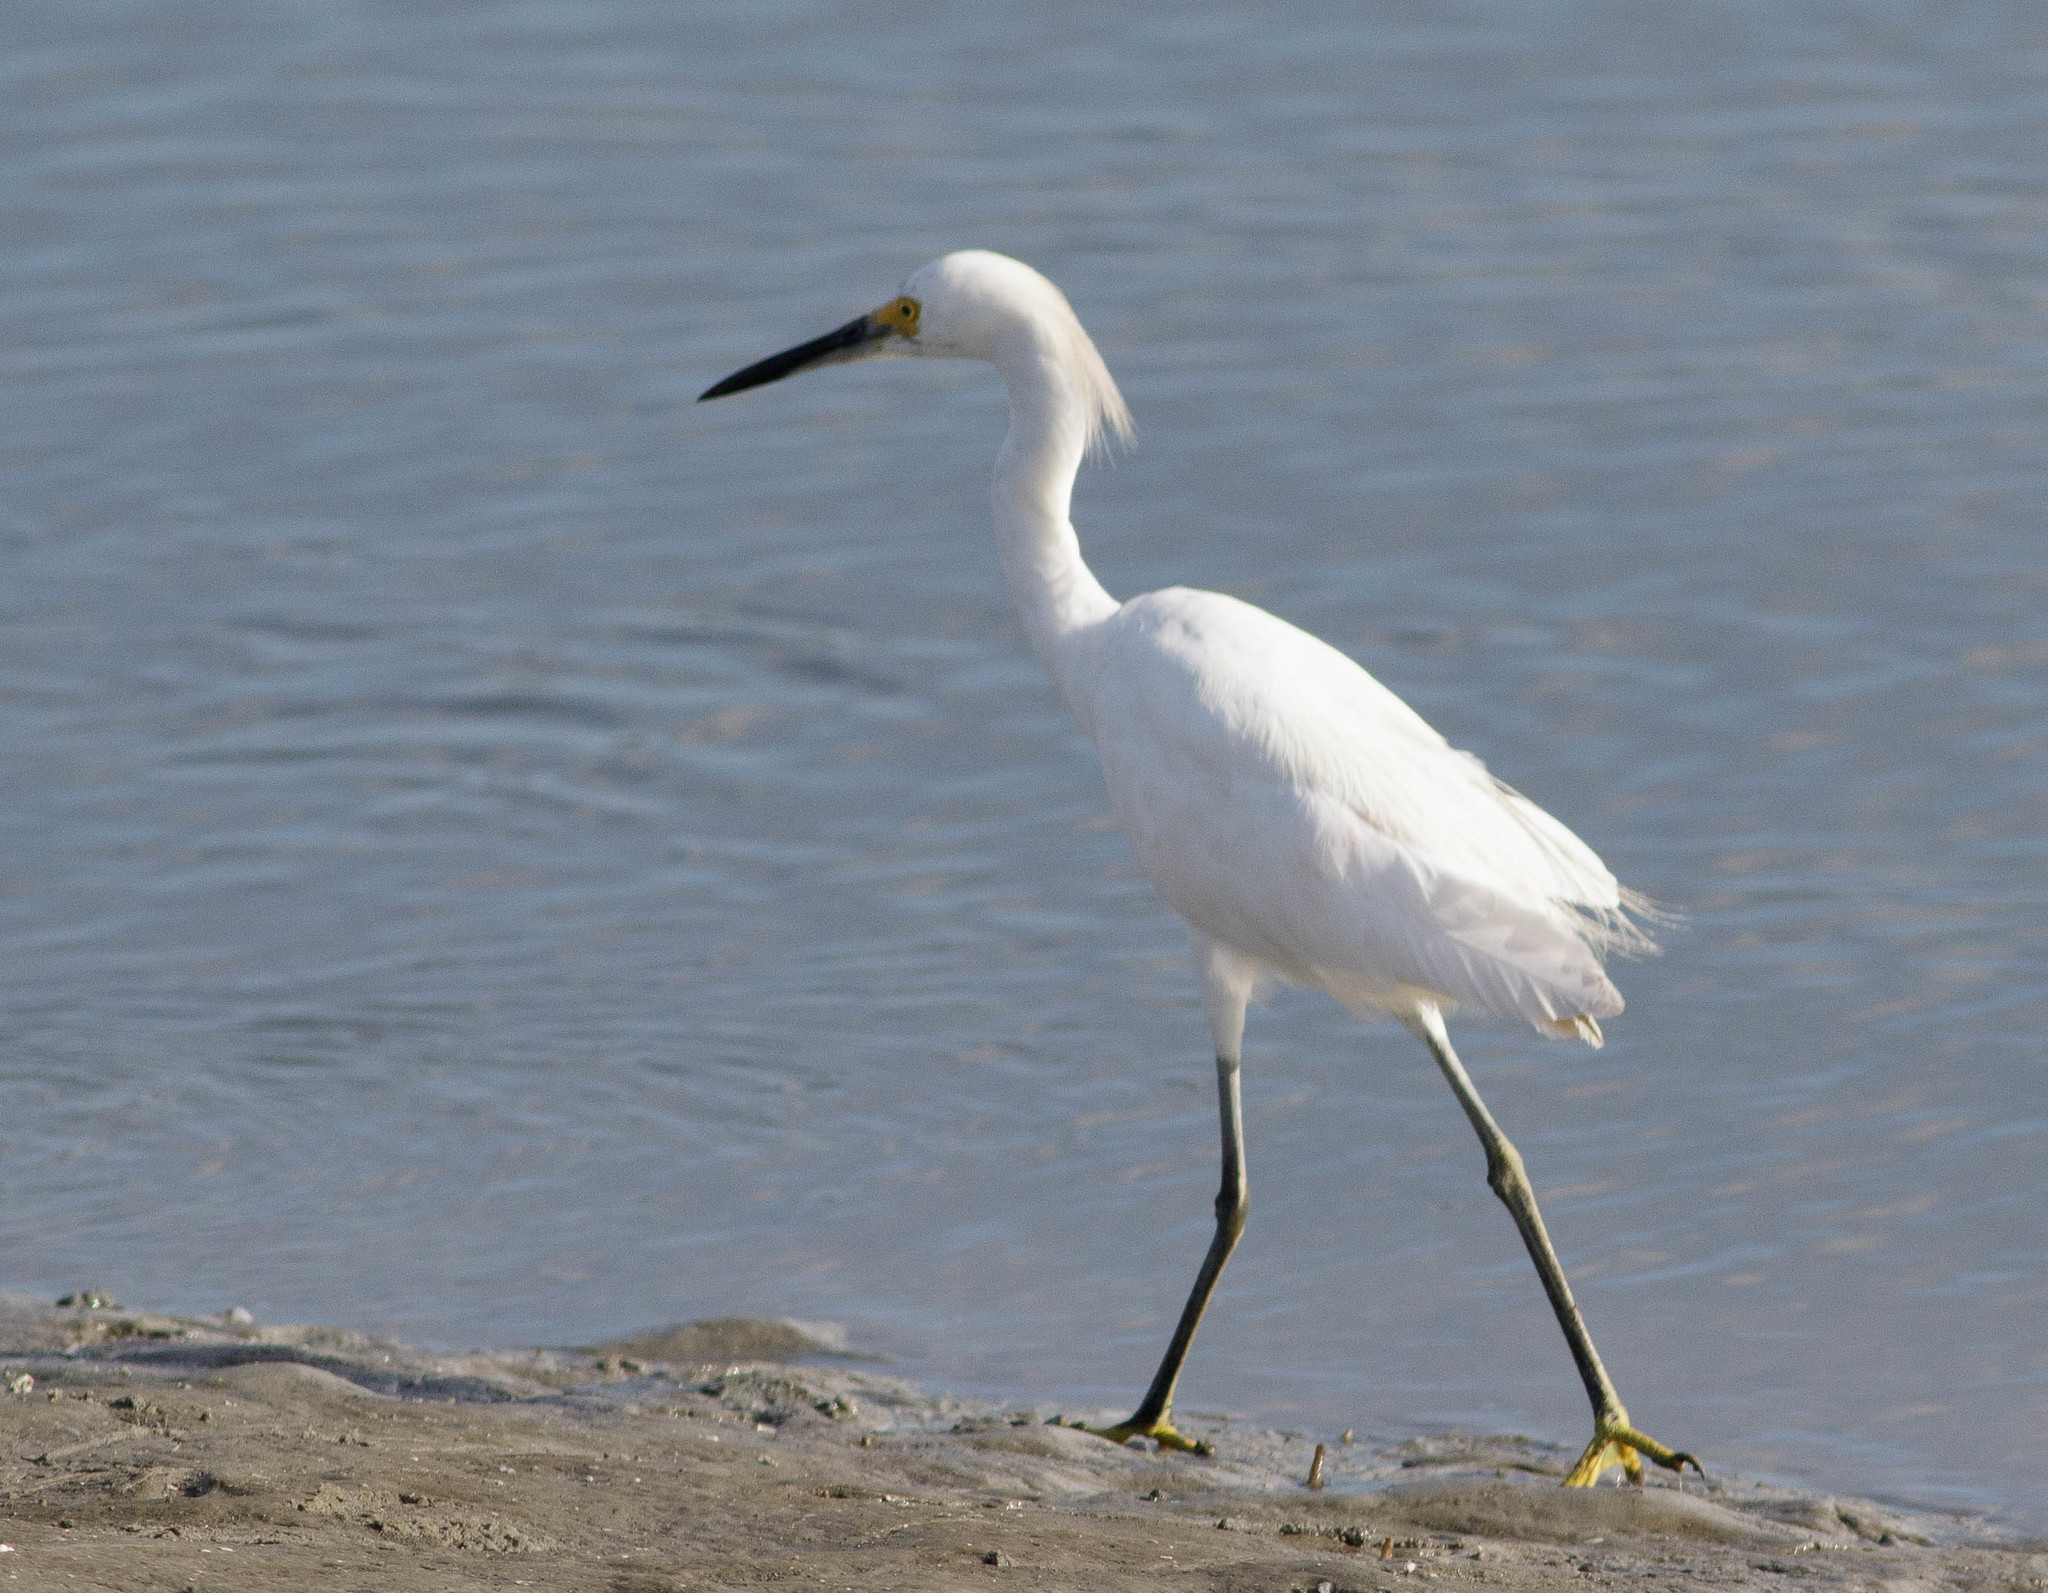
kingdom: Animalia
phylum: Chordata
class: Aves
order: Pelecaniformes
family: Ardeidae
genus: Egretta
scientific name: Egretta thula
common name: Snowy egret
